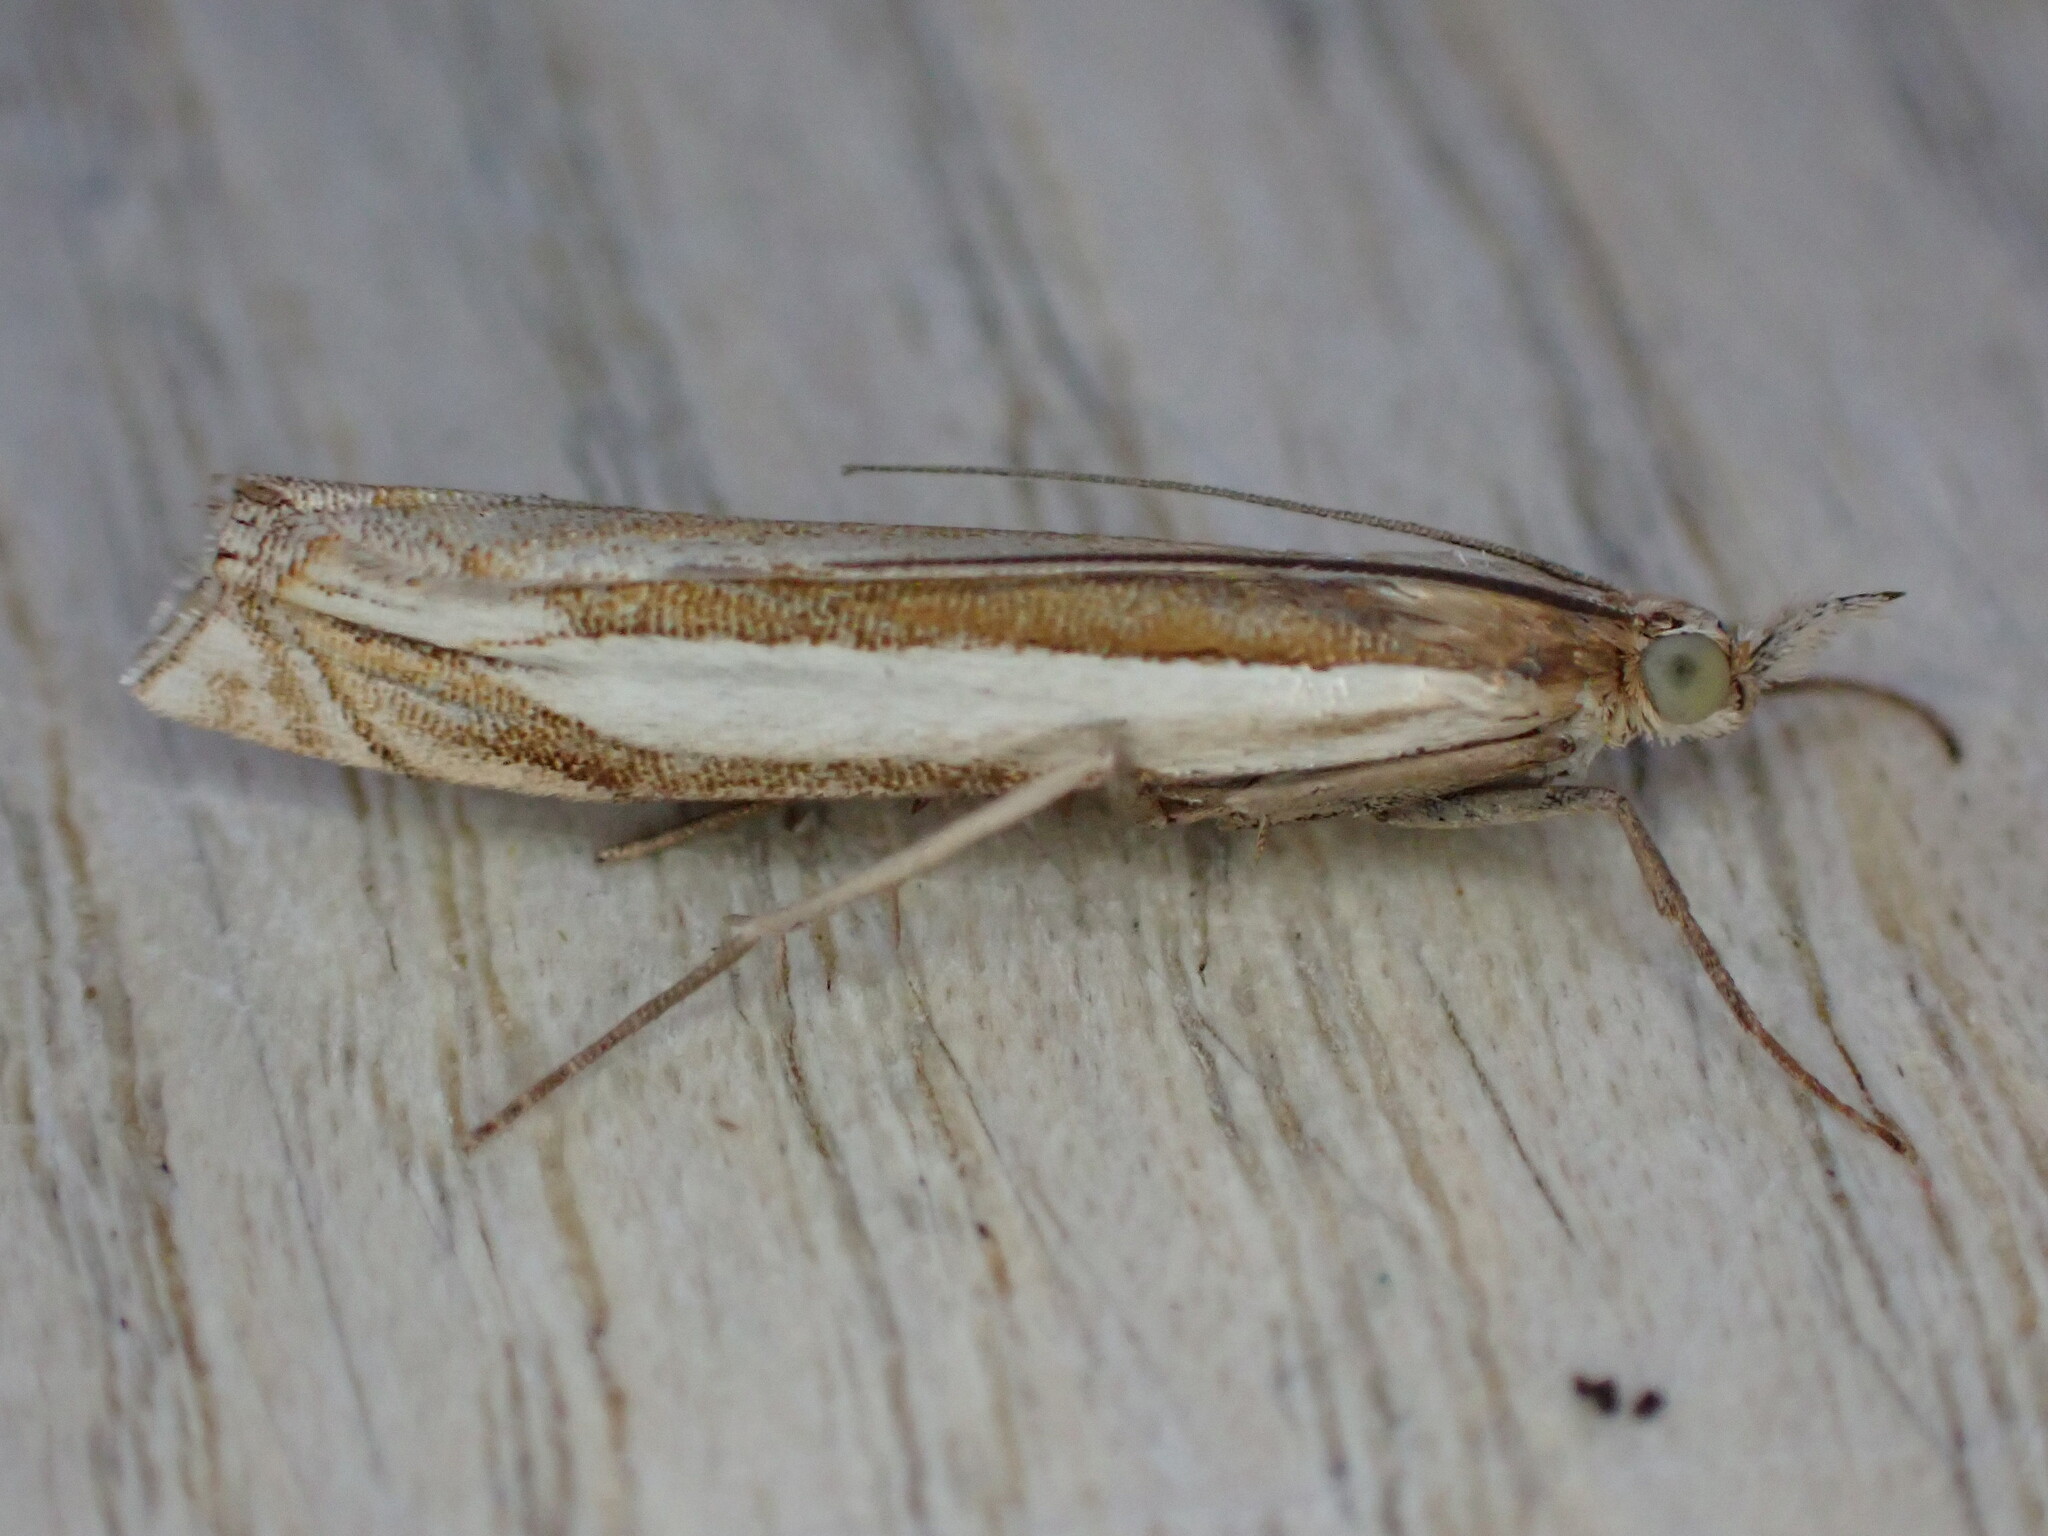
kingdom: Animalia
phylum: Arthropoda
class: Insecta
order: Lepidoptera
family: Crambidae
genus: Crambus
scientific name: Crambus pascuella
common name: Inlaid grass-veneer
